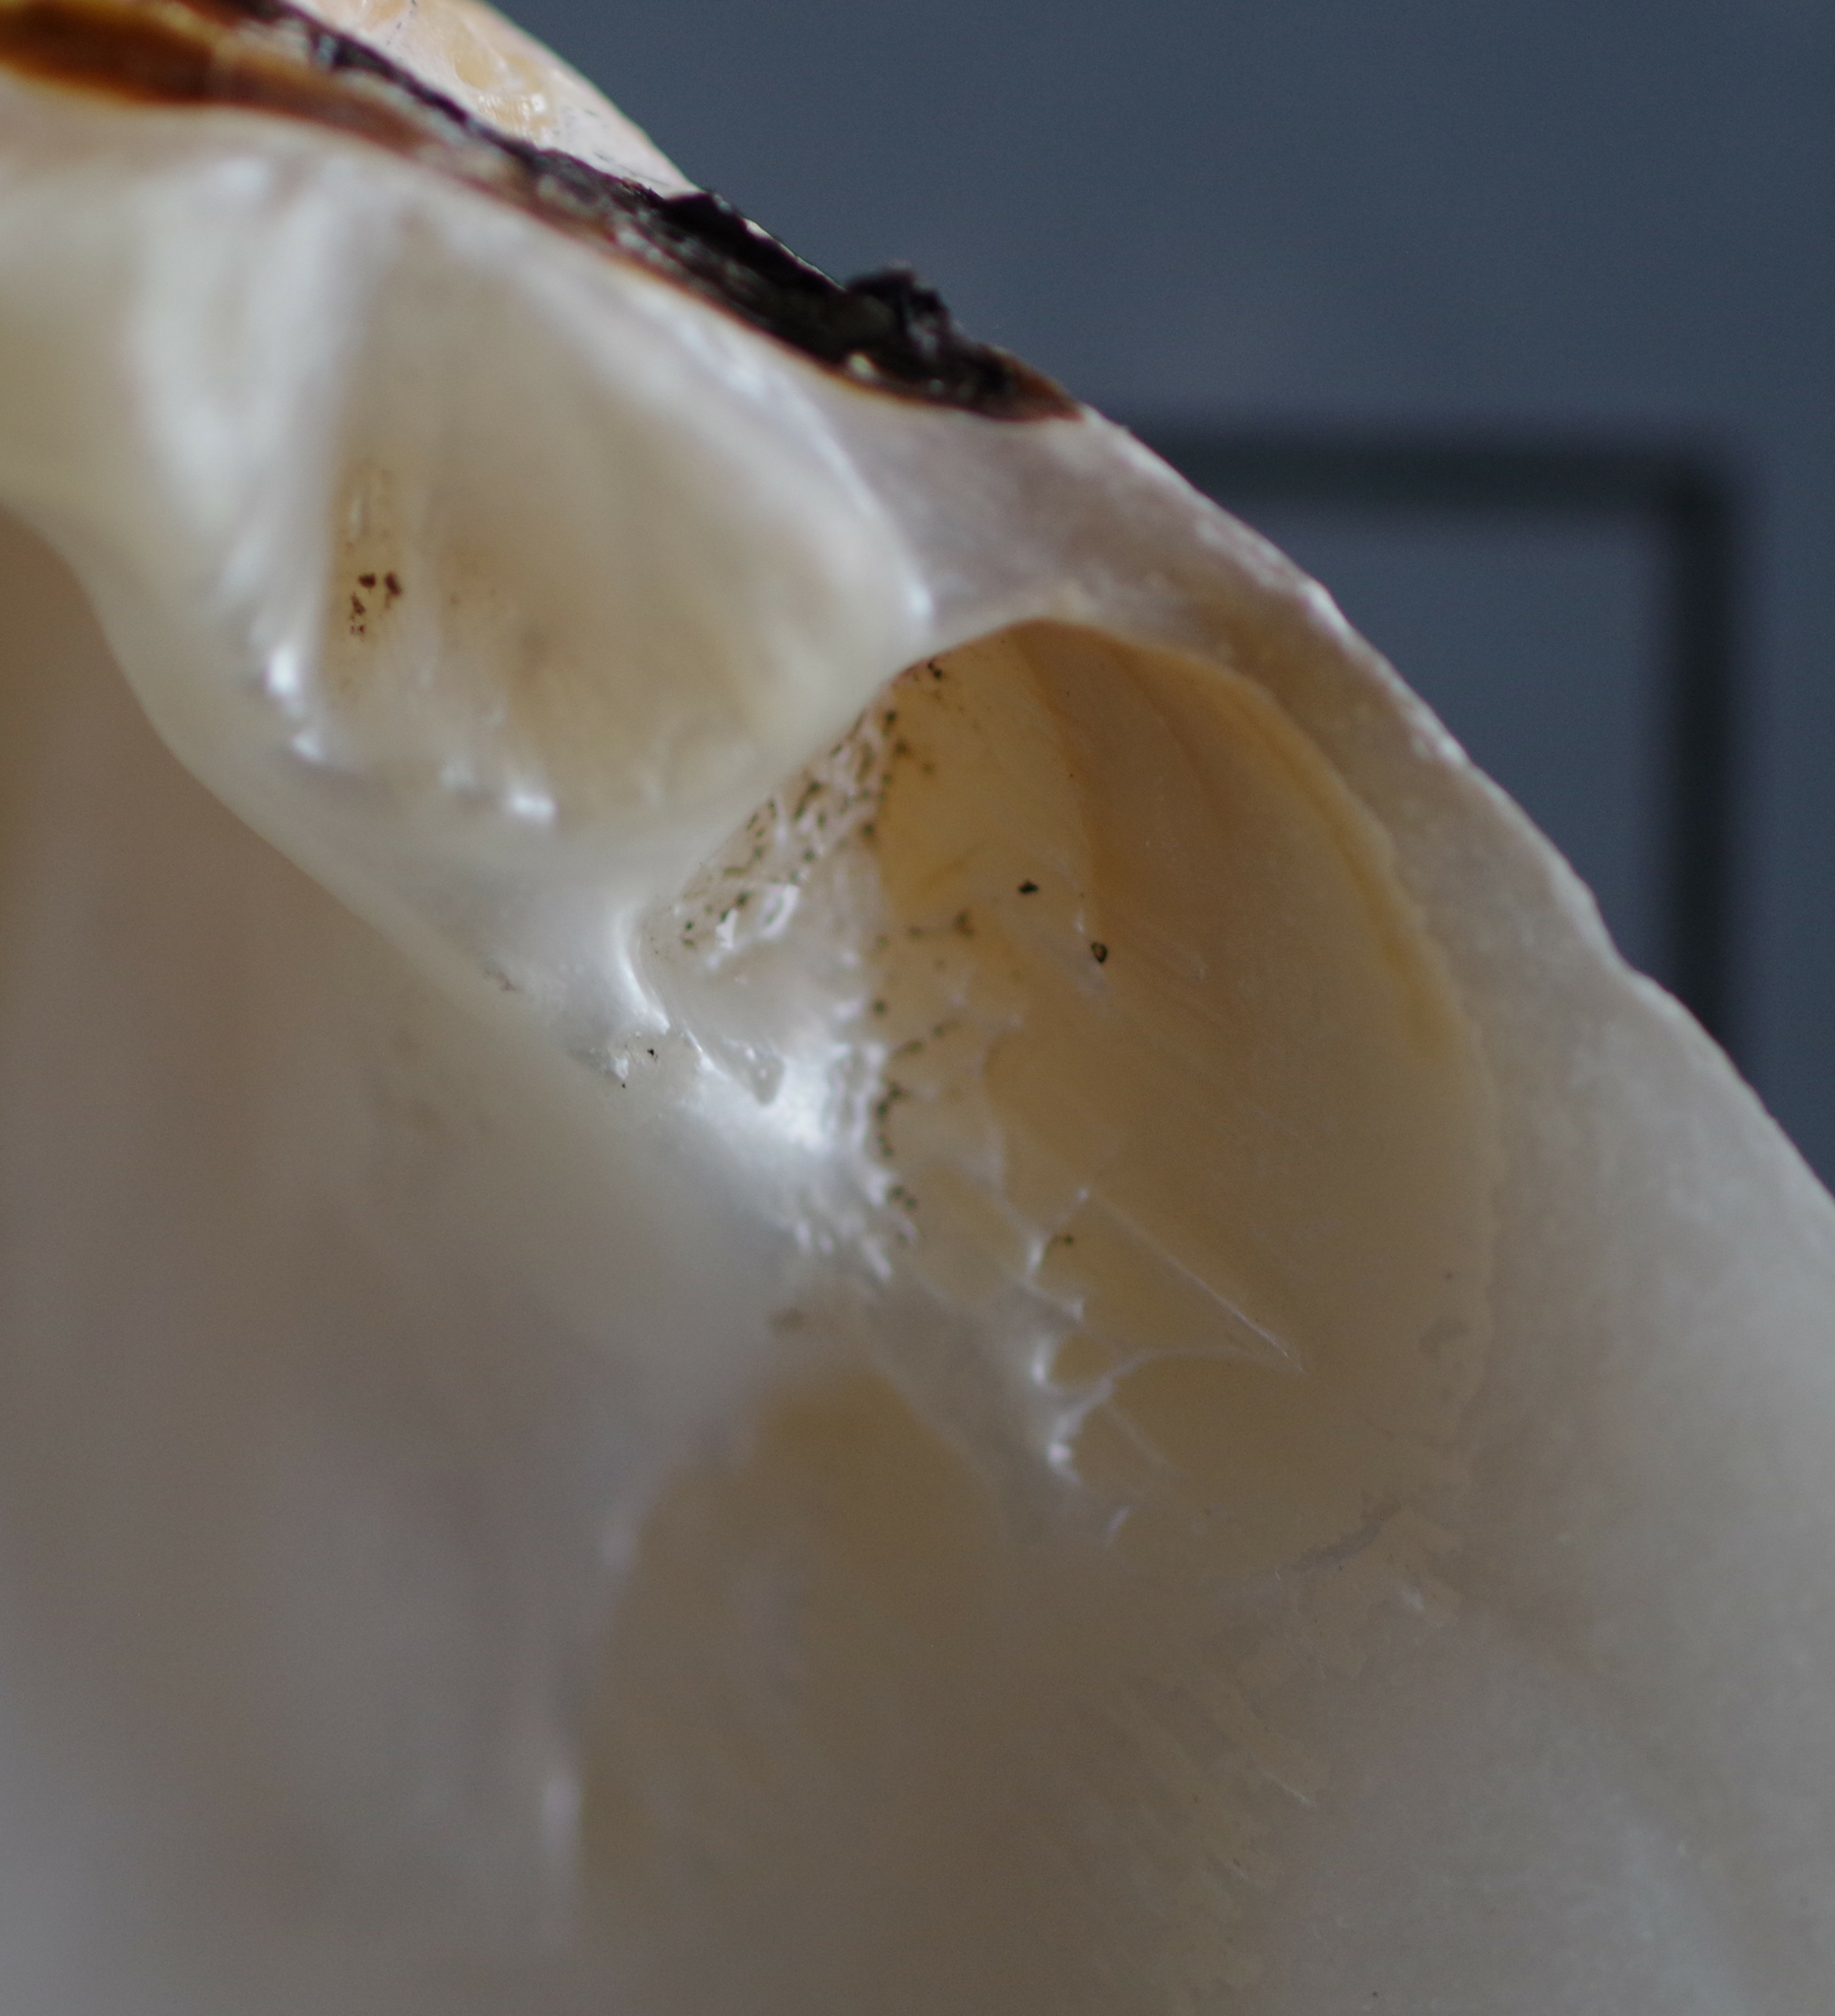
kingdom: Animalia
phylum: Mollusca
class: Bivalvia
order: Unionida
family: Unionidae
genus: Fusconaia
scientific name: Fusconaia flava
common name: Wabash pigtoe
